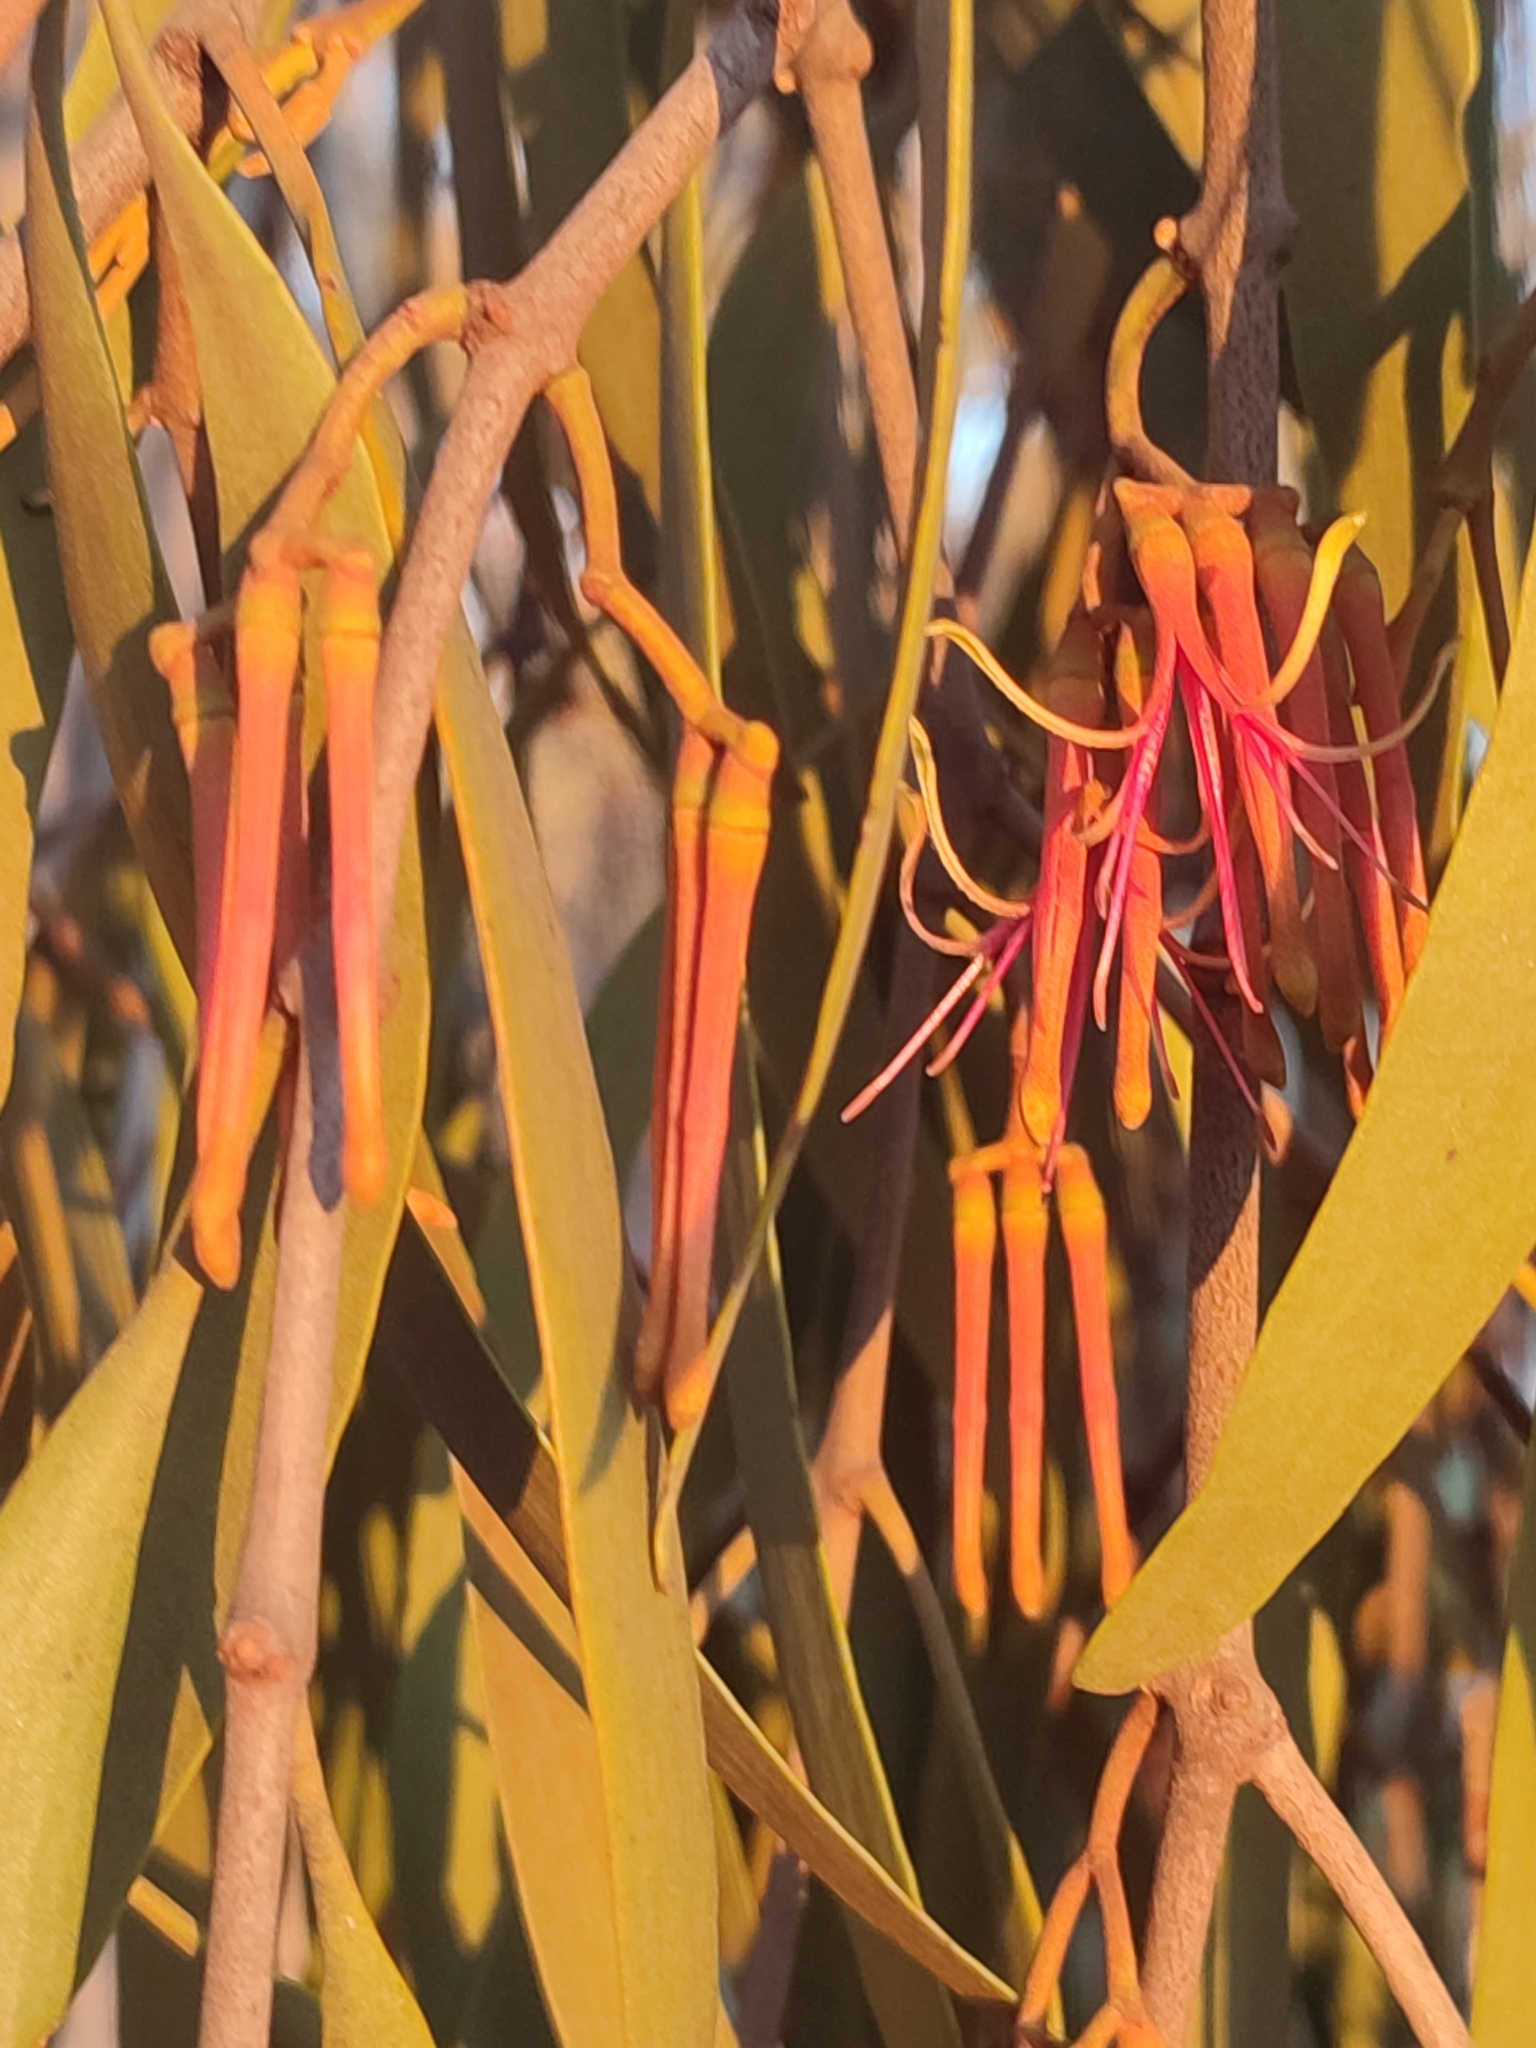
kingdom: Plantae
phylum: Tracheophyta
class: Magnoliopsida
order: Santalales
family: Loranthaceae
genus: Amyema
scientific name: Amyema pendula
